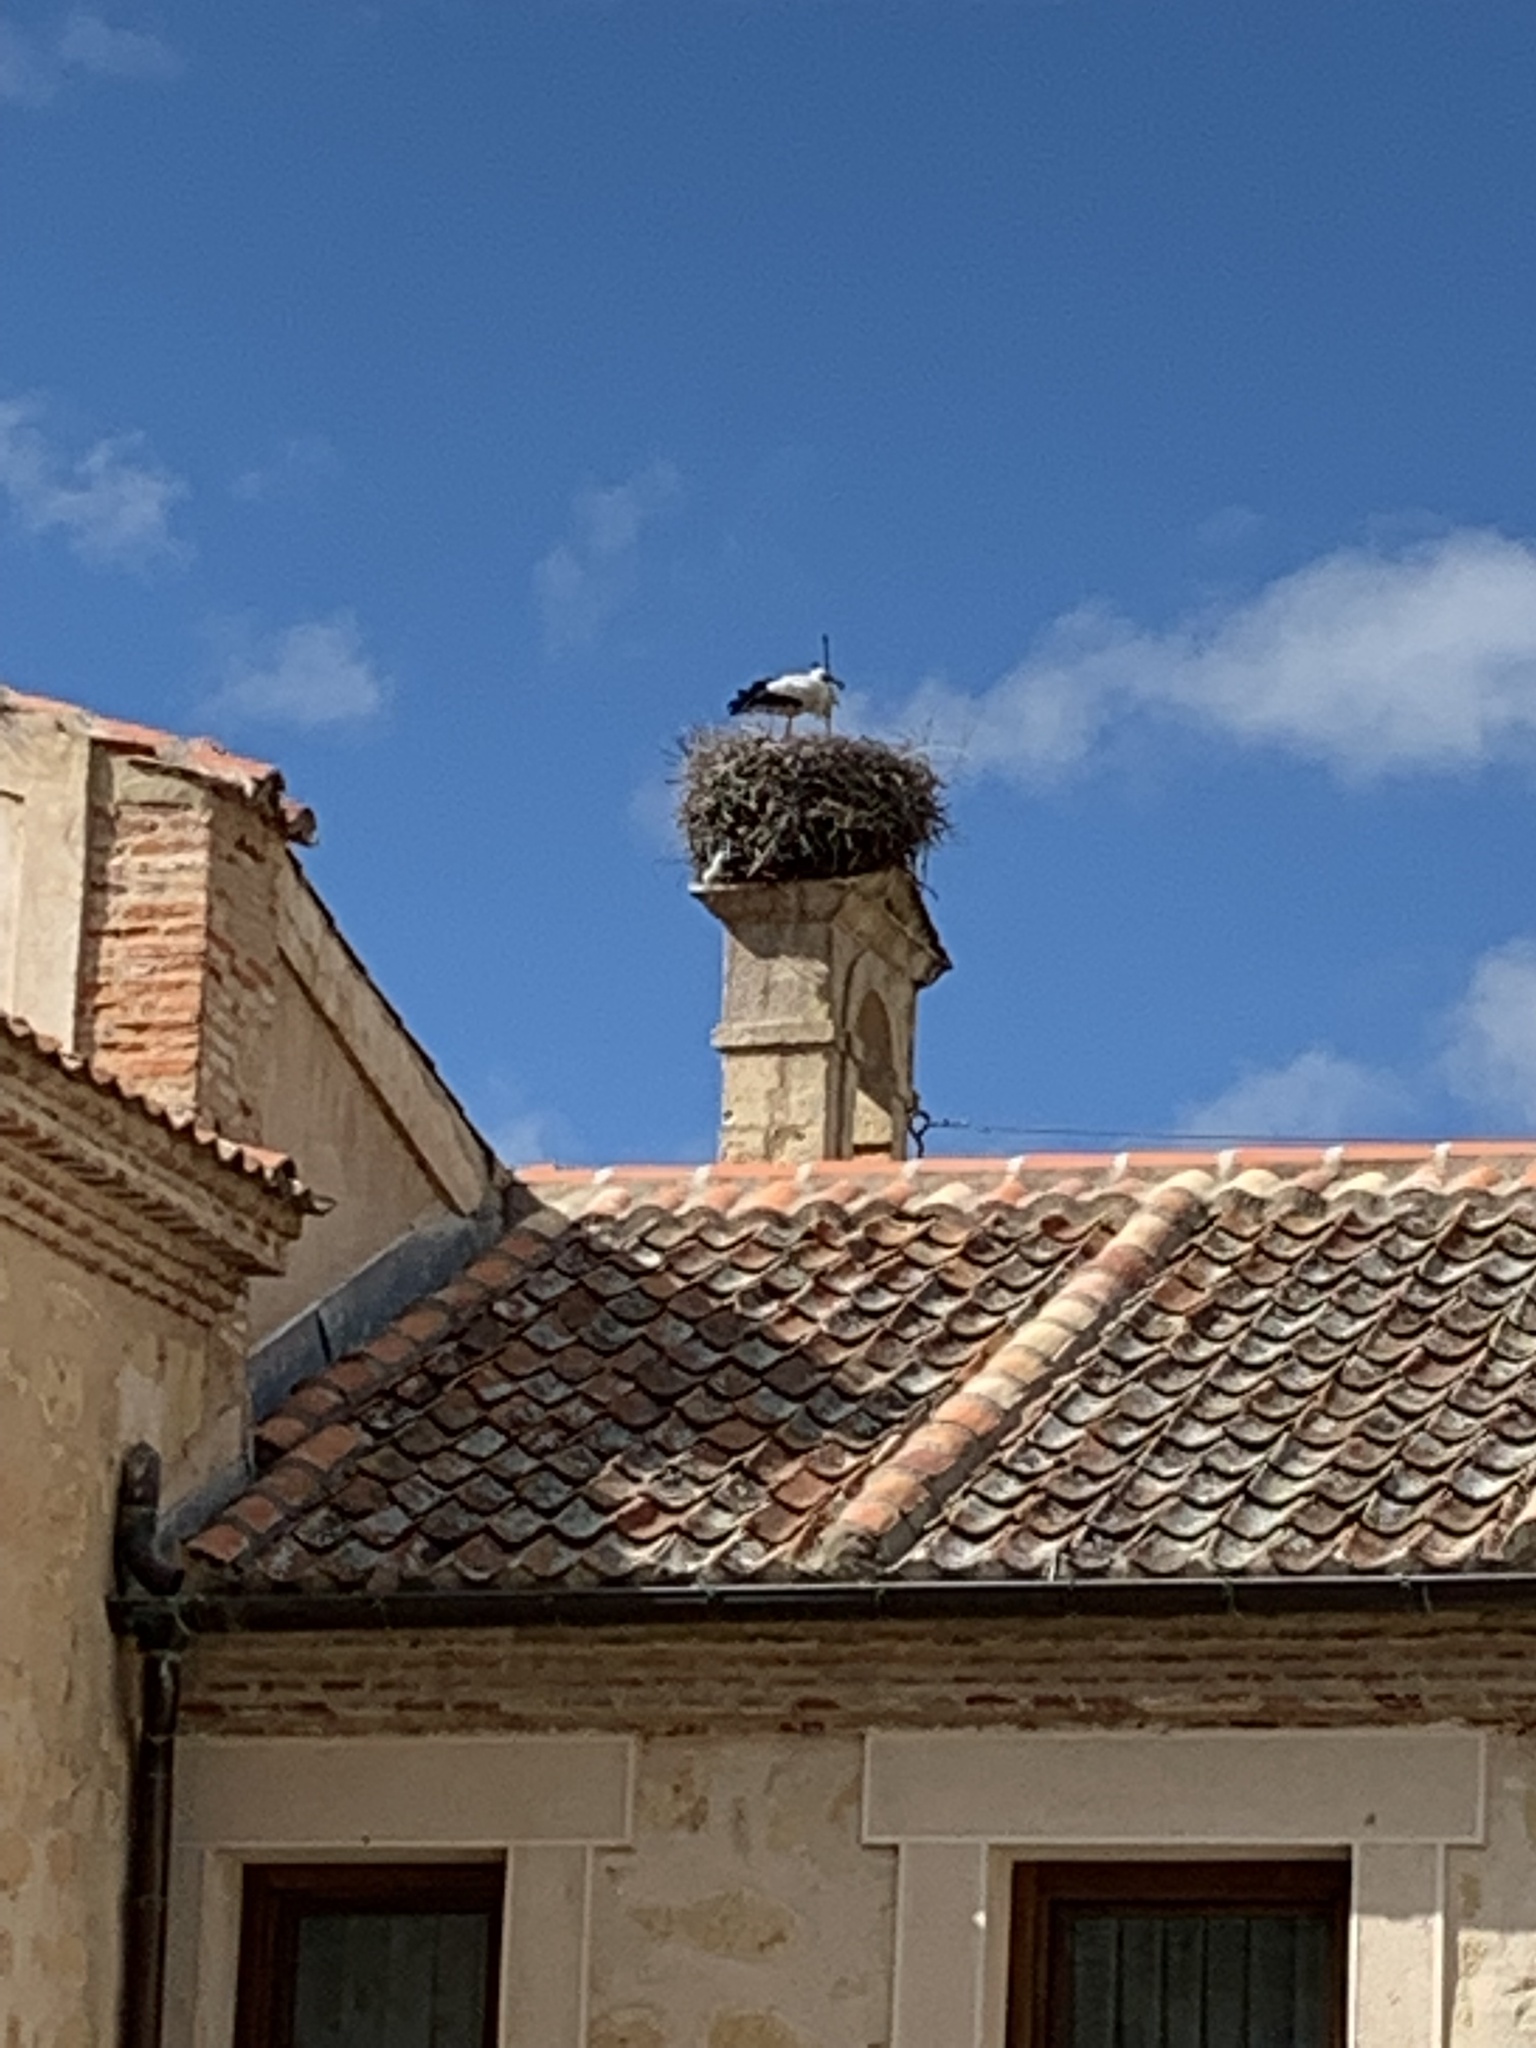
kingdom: Animalia
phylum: Chordata
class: Aves
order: Ciconiiformes
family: Ciconiidae
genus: Ciconia
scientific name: Ciconia ciconia
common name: White stork
